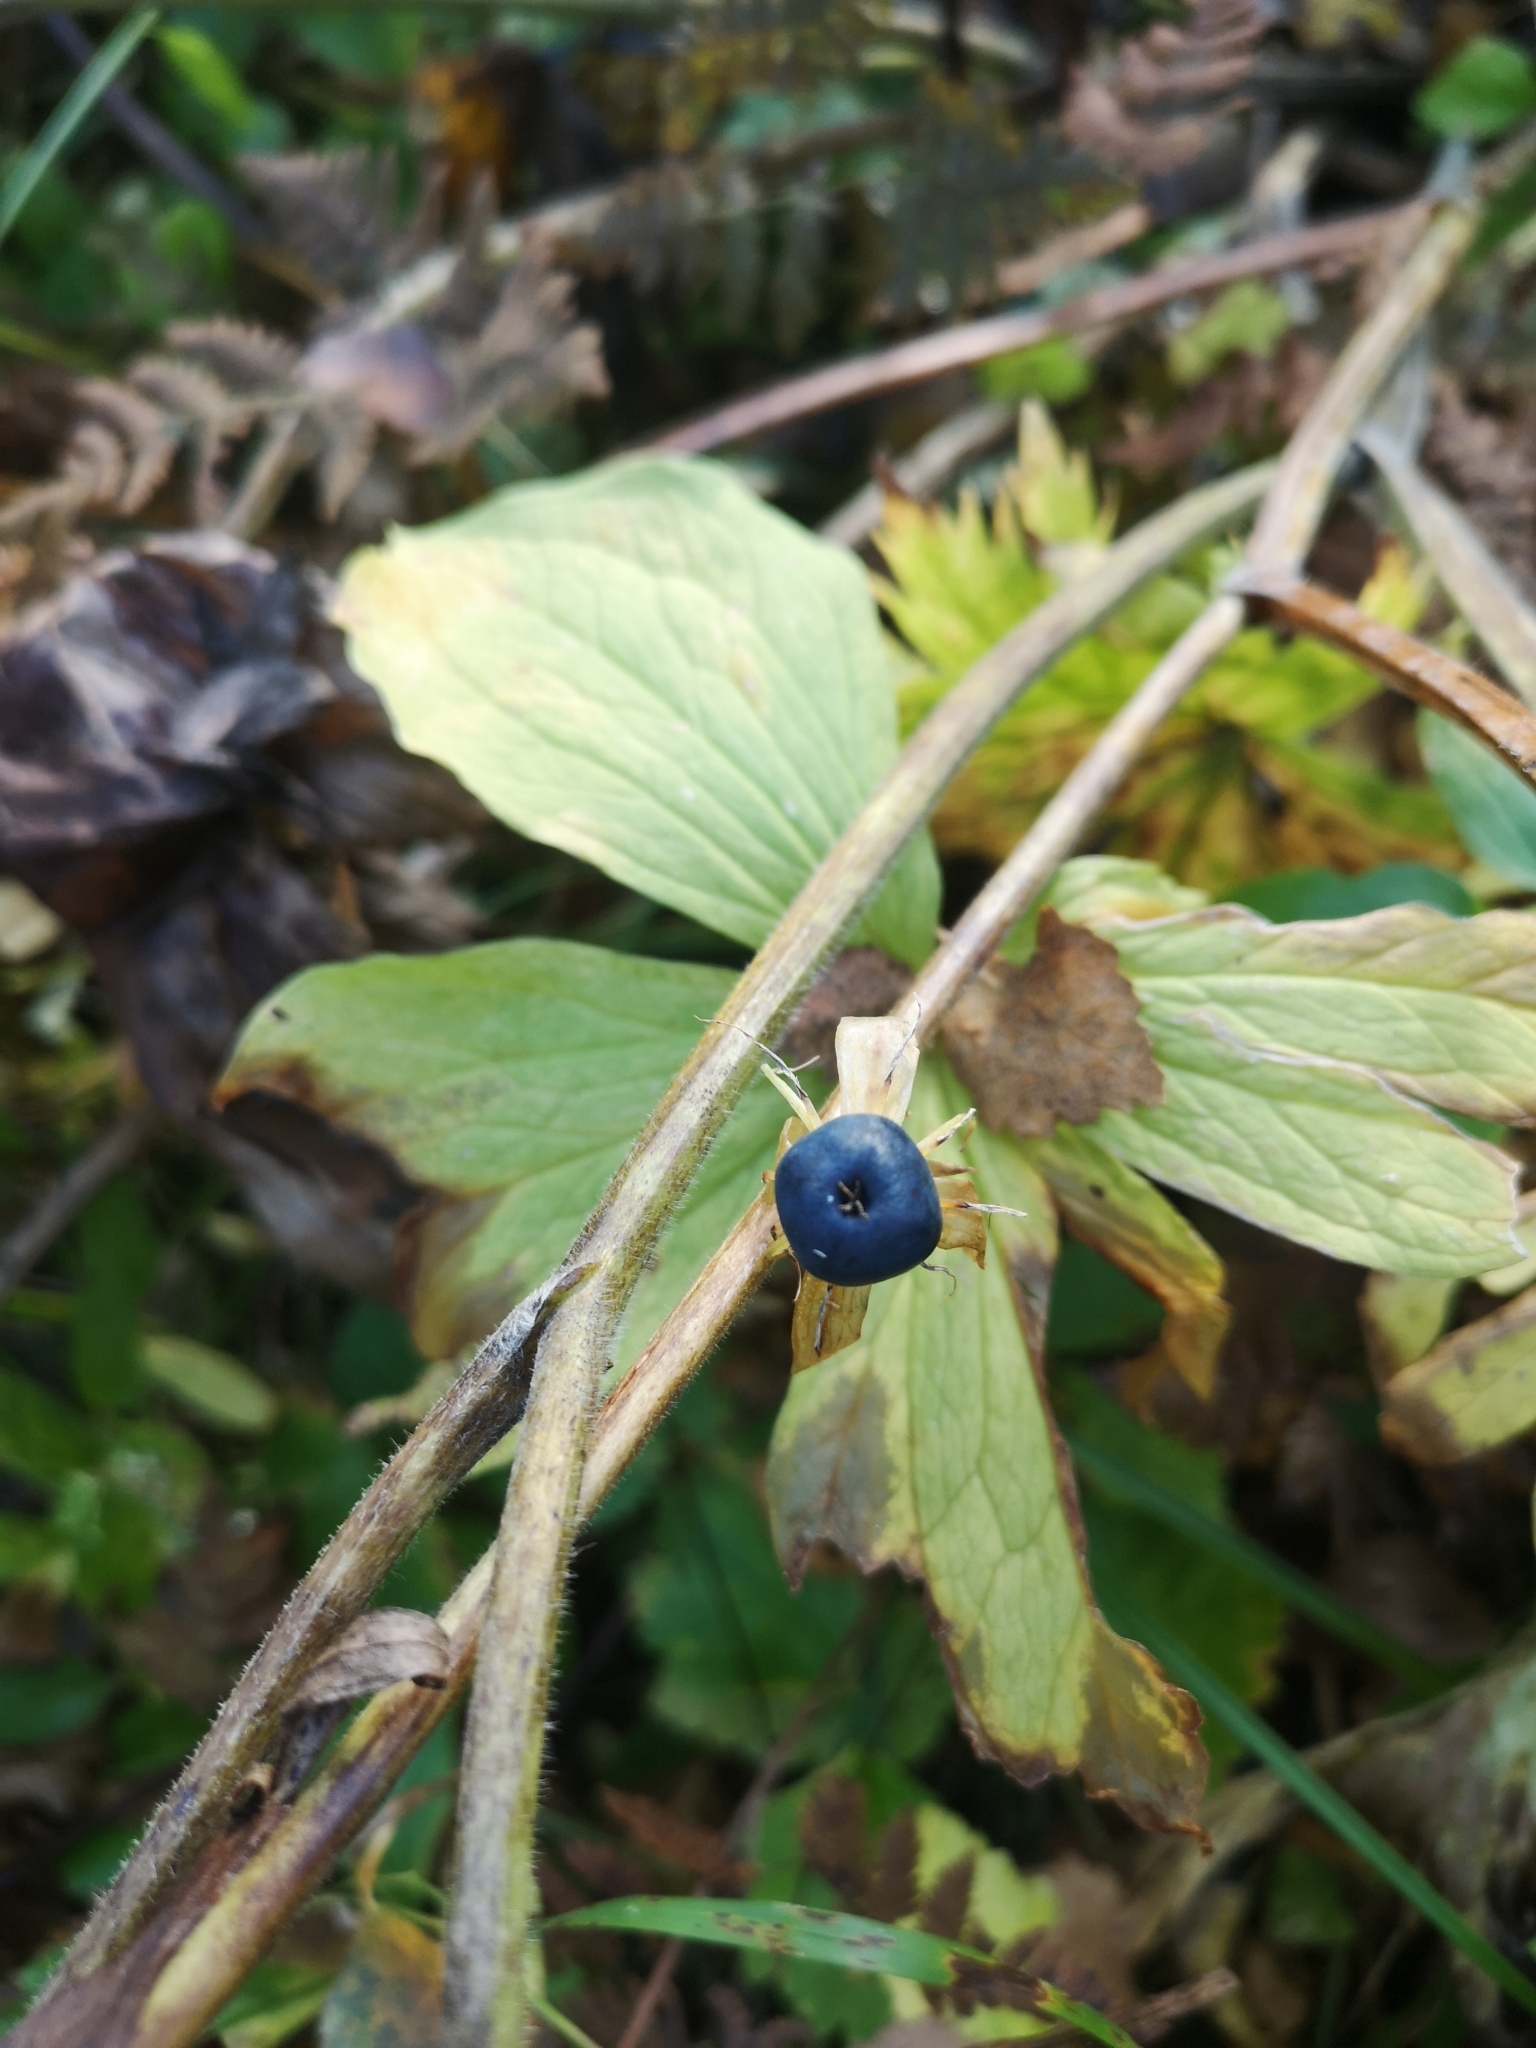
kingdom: Plantae
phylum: Tracheophyta
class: Liliopsida
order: Liliales
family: Melanthiaceae
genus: Paris
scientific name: Paris quadrifolia
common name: Herb-paris
